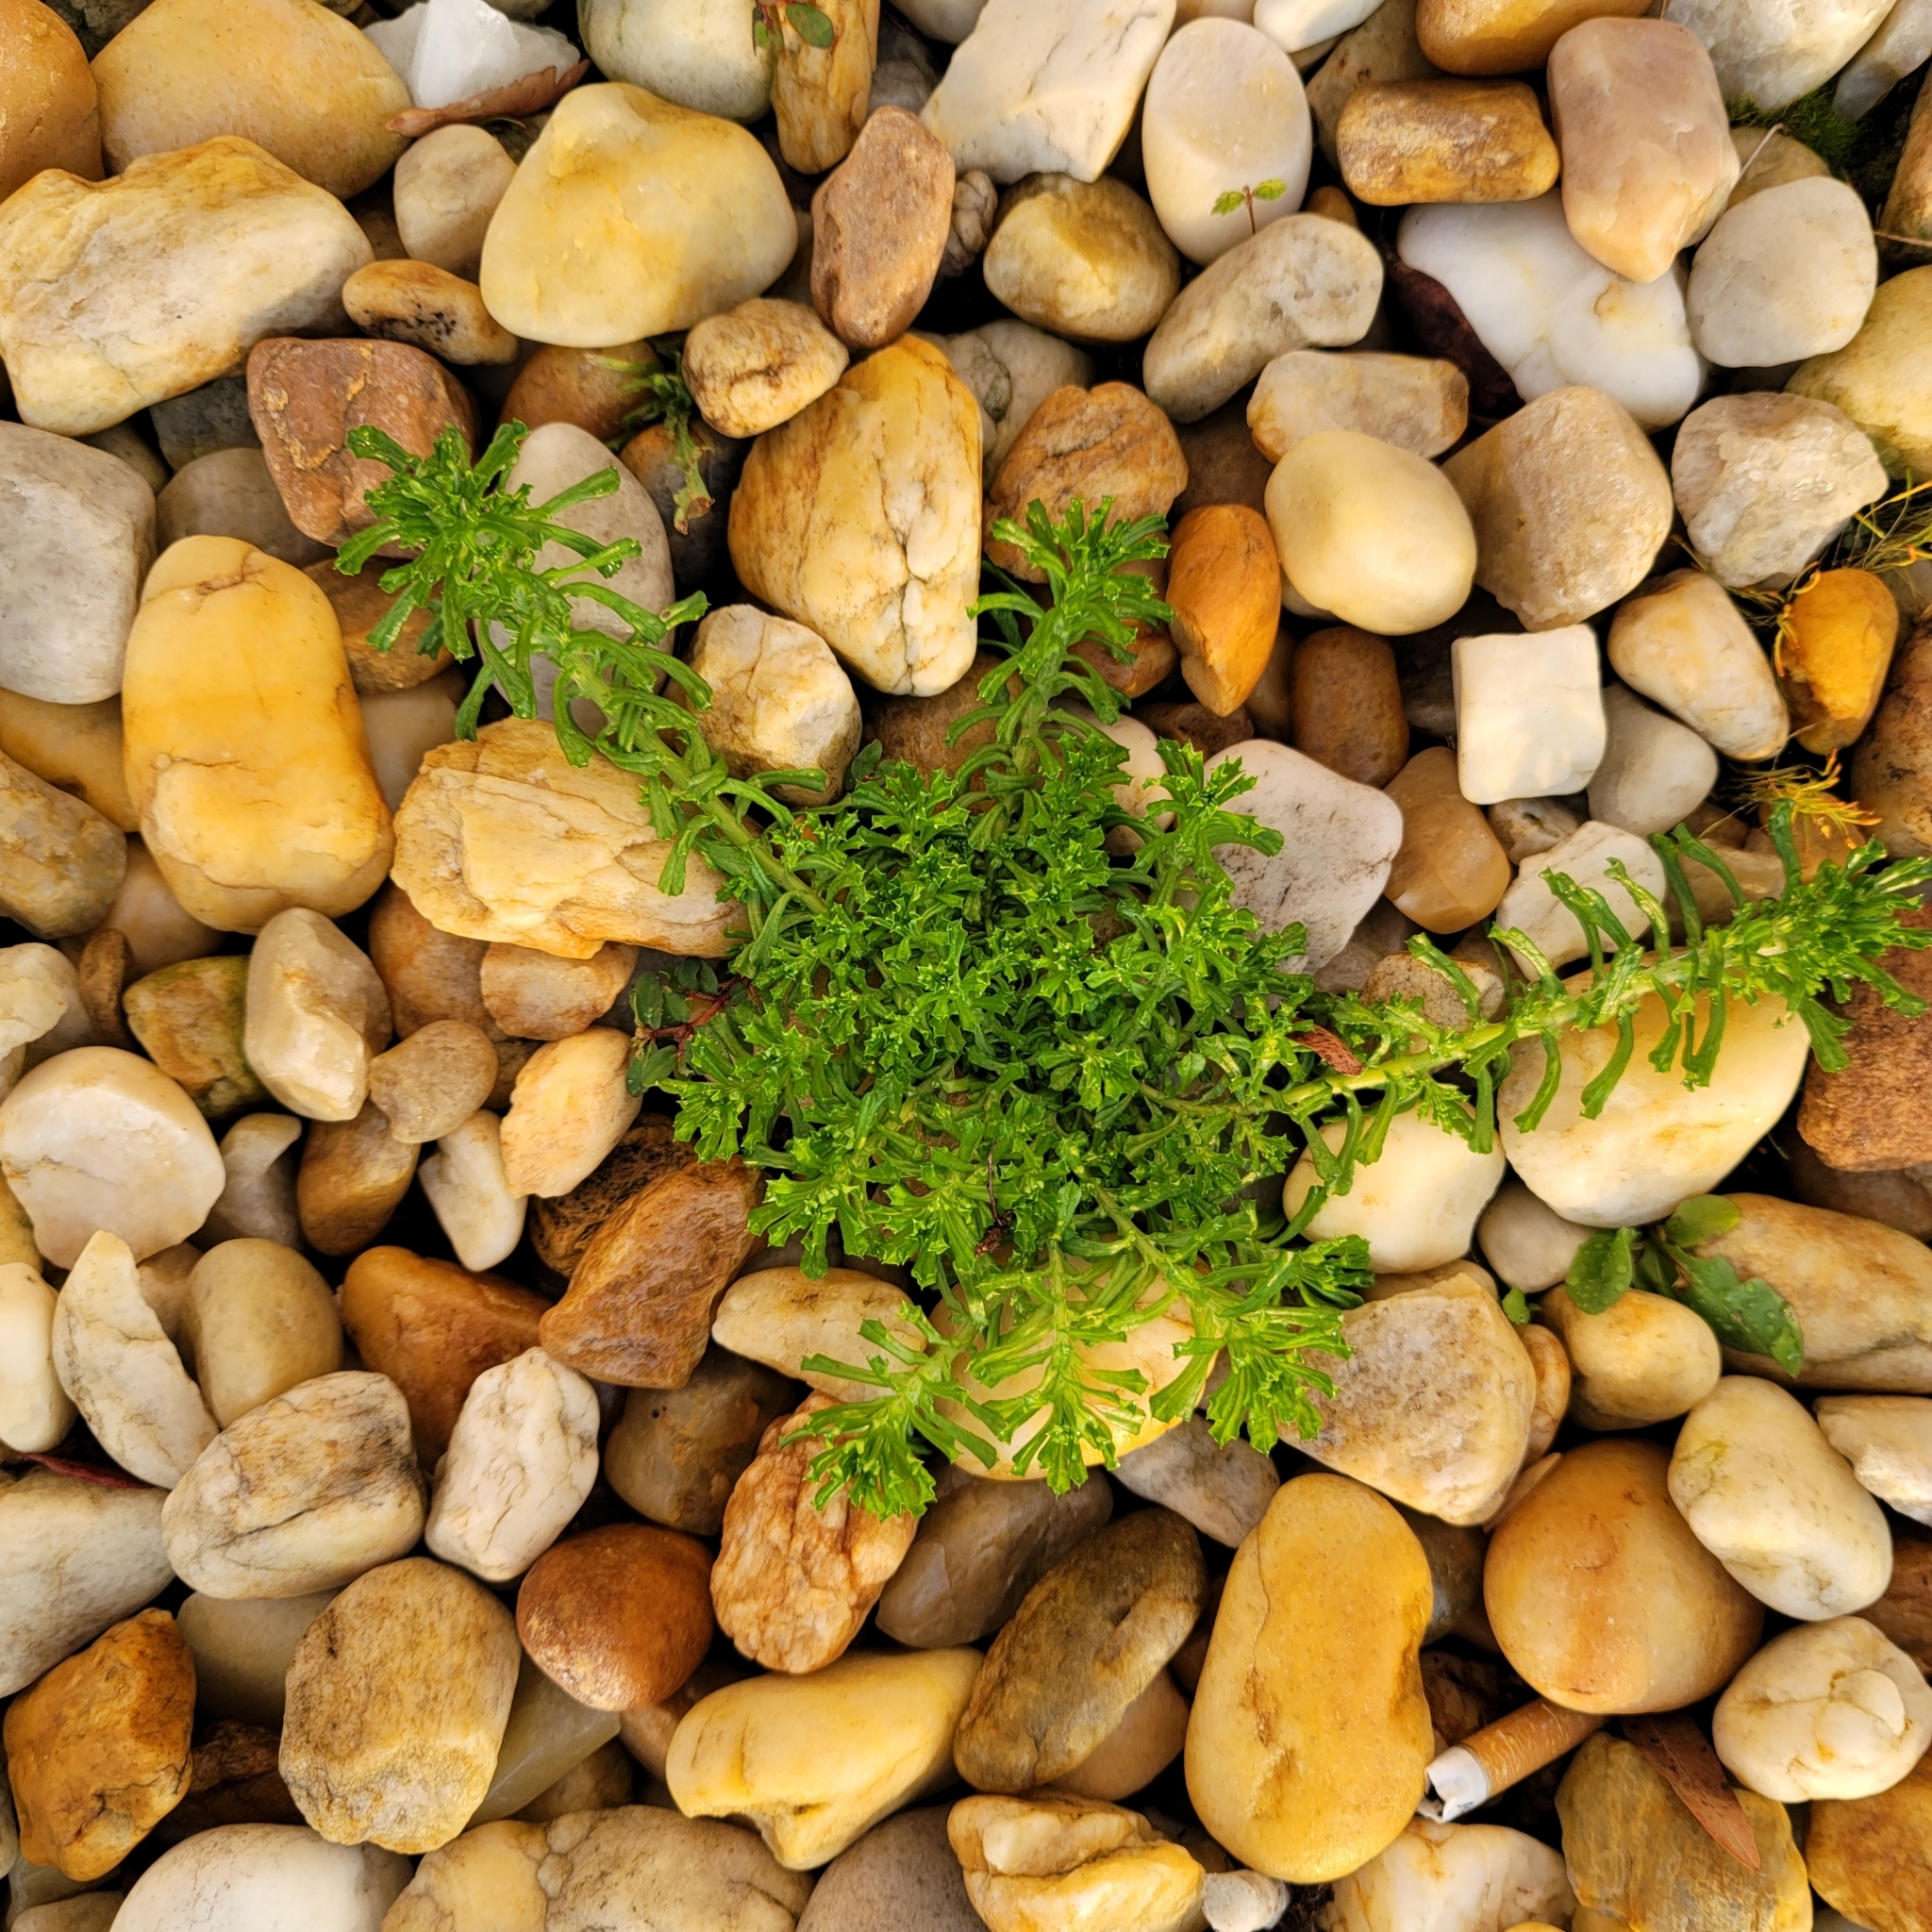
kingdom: Plantae
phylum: Tracheophyta
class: Magnoliopsida
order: Asterales
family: Asteraceae
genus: Facelis
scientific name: Facelis retusa
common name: Annual trampweed
